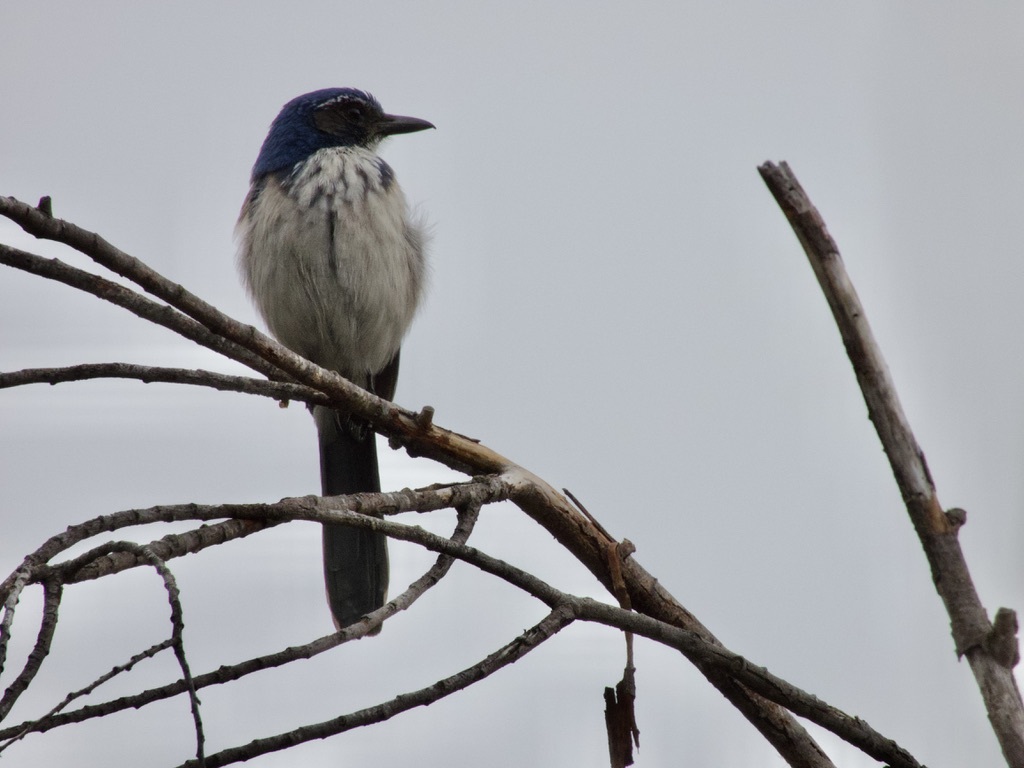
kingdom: Animalia
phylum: Chordata
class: Aves
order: Passeriformes
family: Corvidae
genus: Aphelocoma
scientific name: Aphelocoma californica
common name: California scrub-jay
